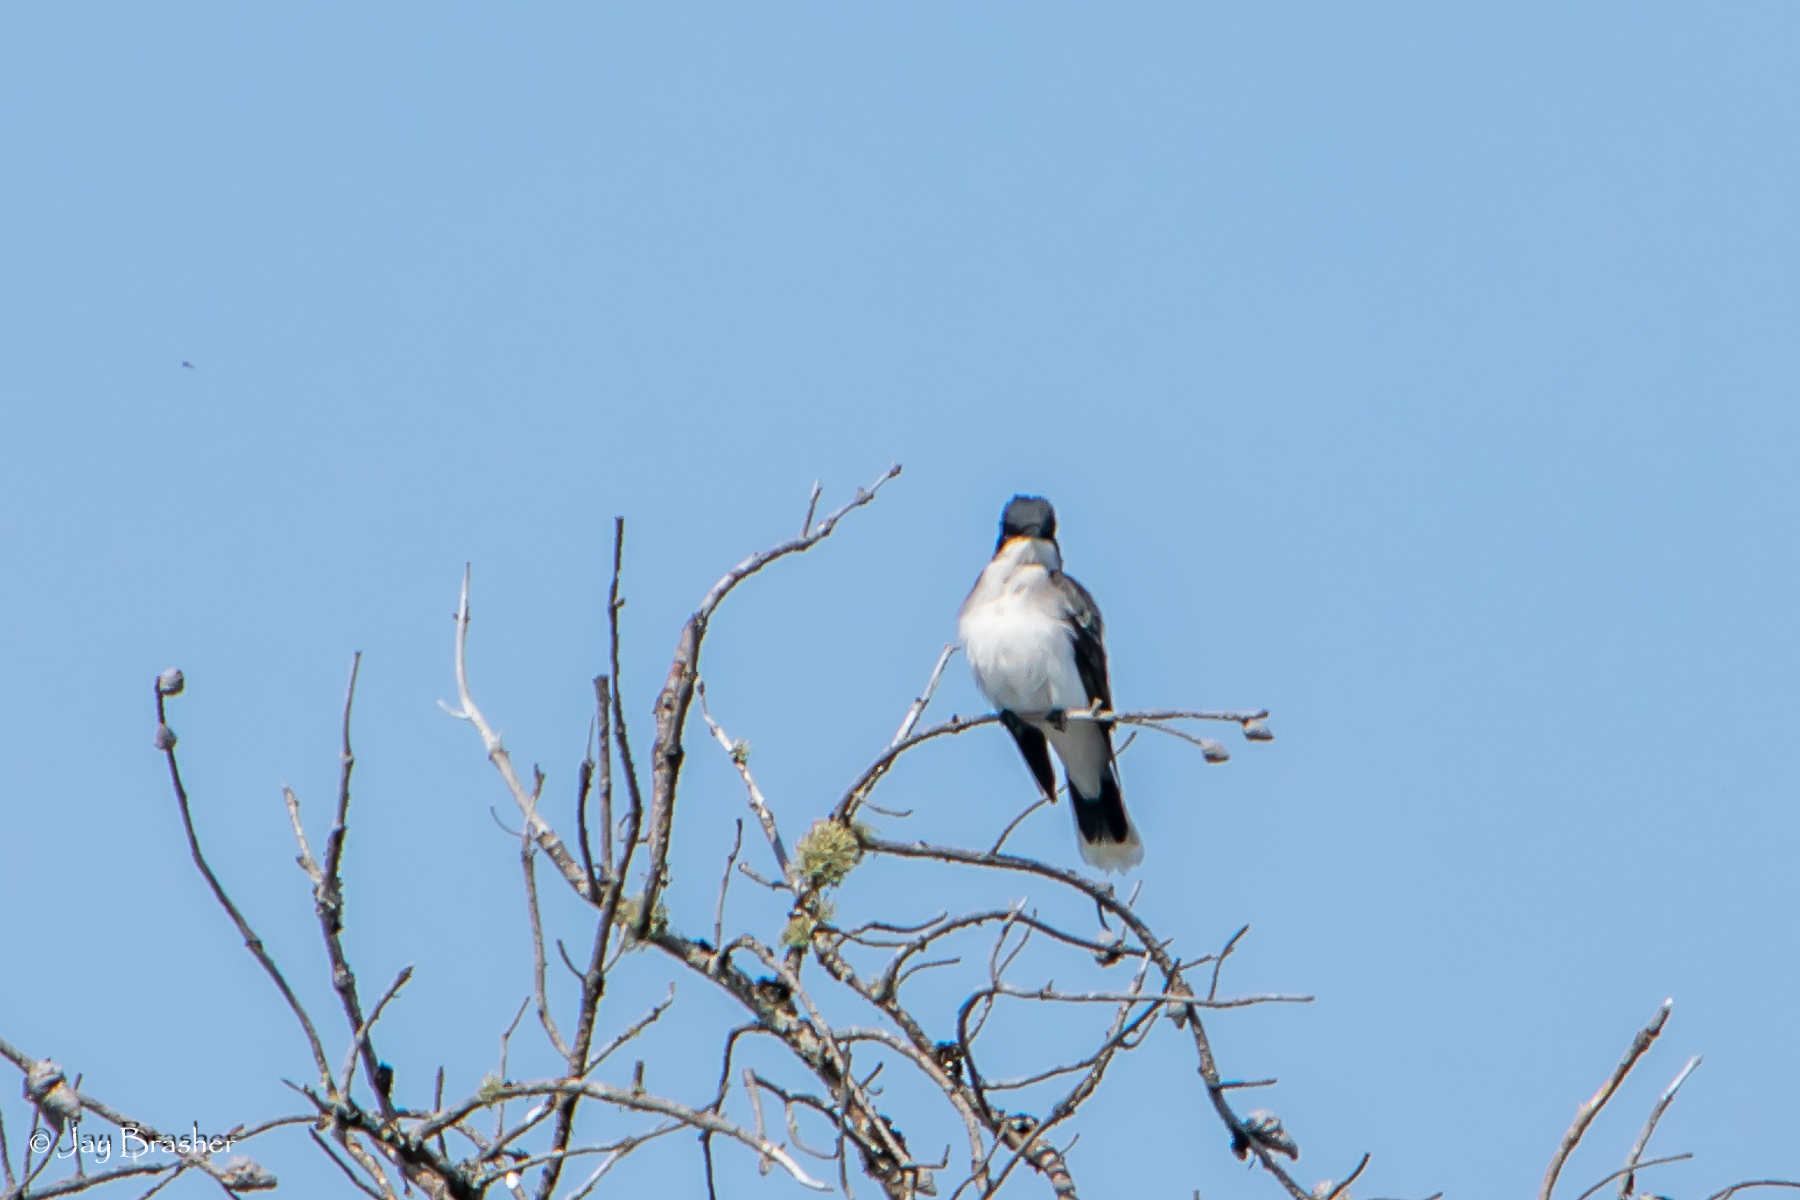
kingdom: Animalia
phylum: Chordata
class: Aves
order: Passeriformes
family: Tyrannidae
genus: Tyrannus
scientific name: Tyrannus tyrannus
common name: Eastern kingbird
